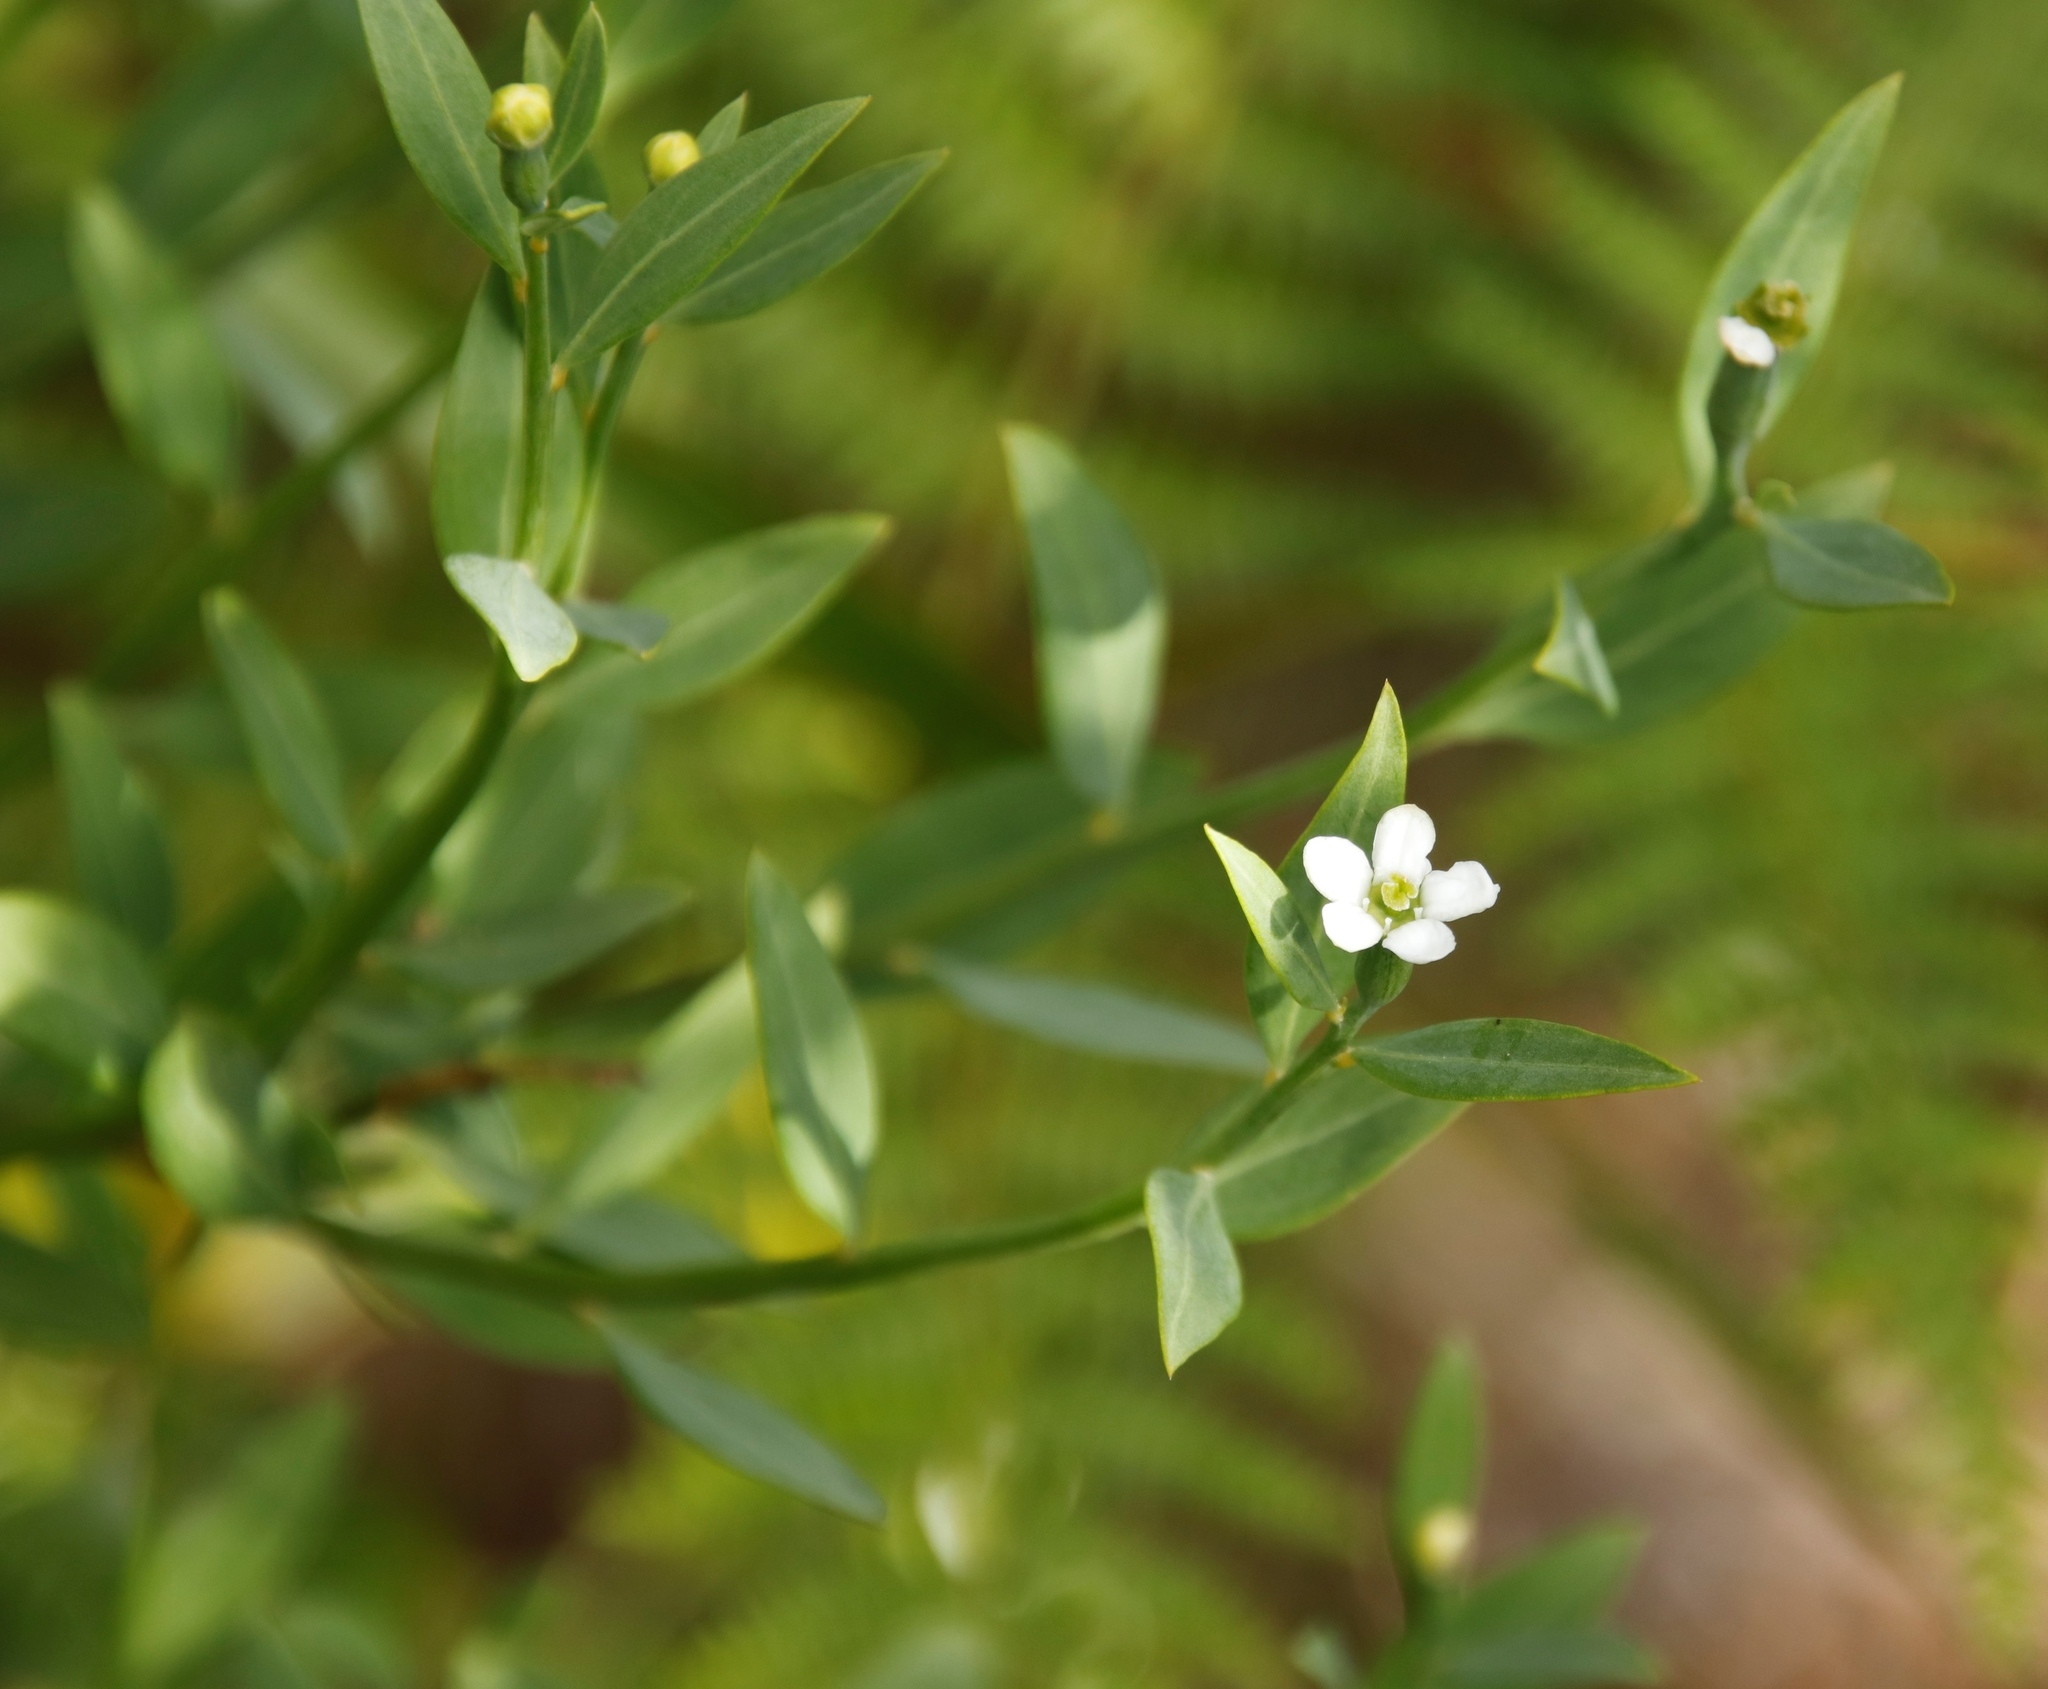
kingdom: Plantae
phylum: Tracheophyta
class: Magnoliopsida
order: Solanales
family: Montiniaceae
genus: Montinia
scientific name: Montinia caryophyllacea
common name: Wild clove-bush
